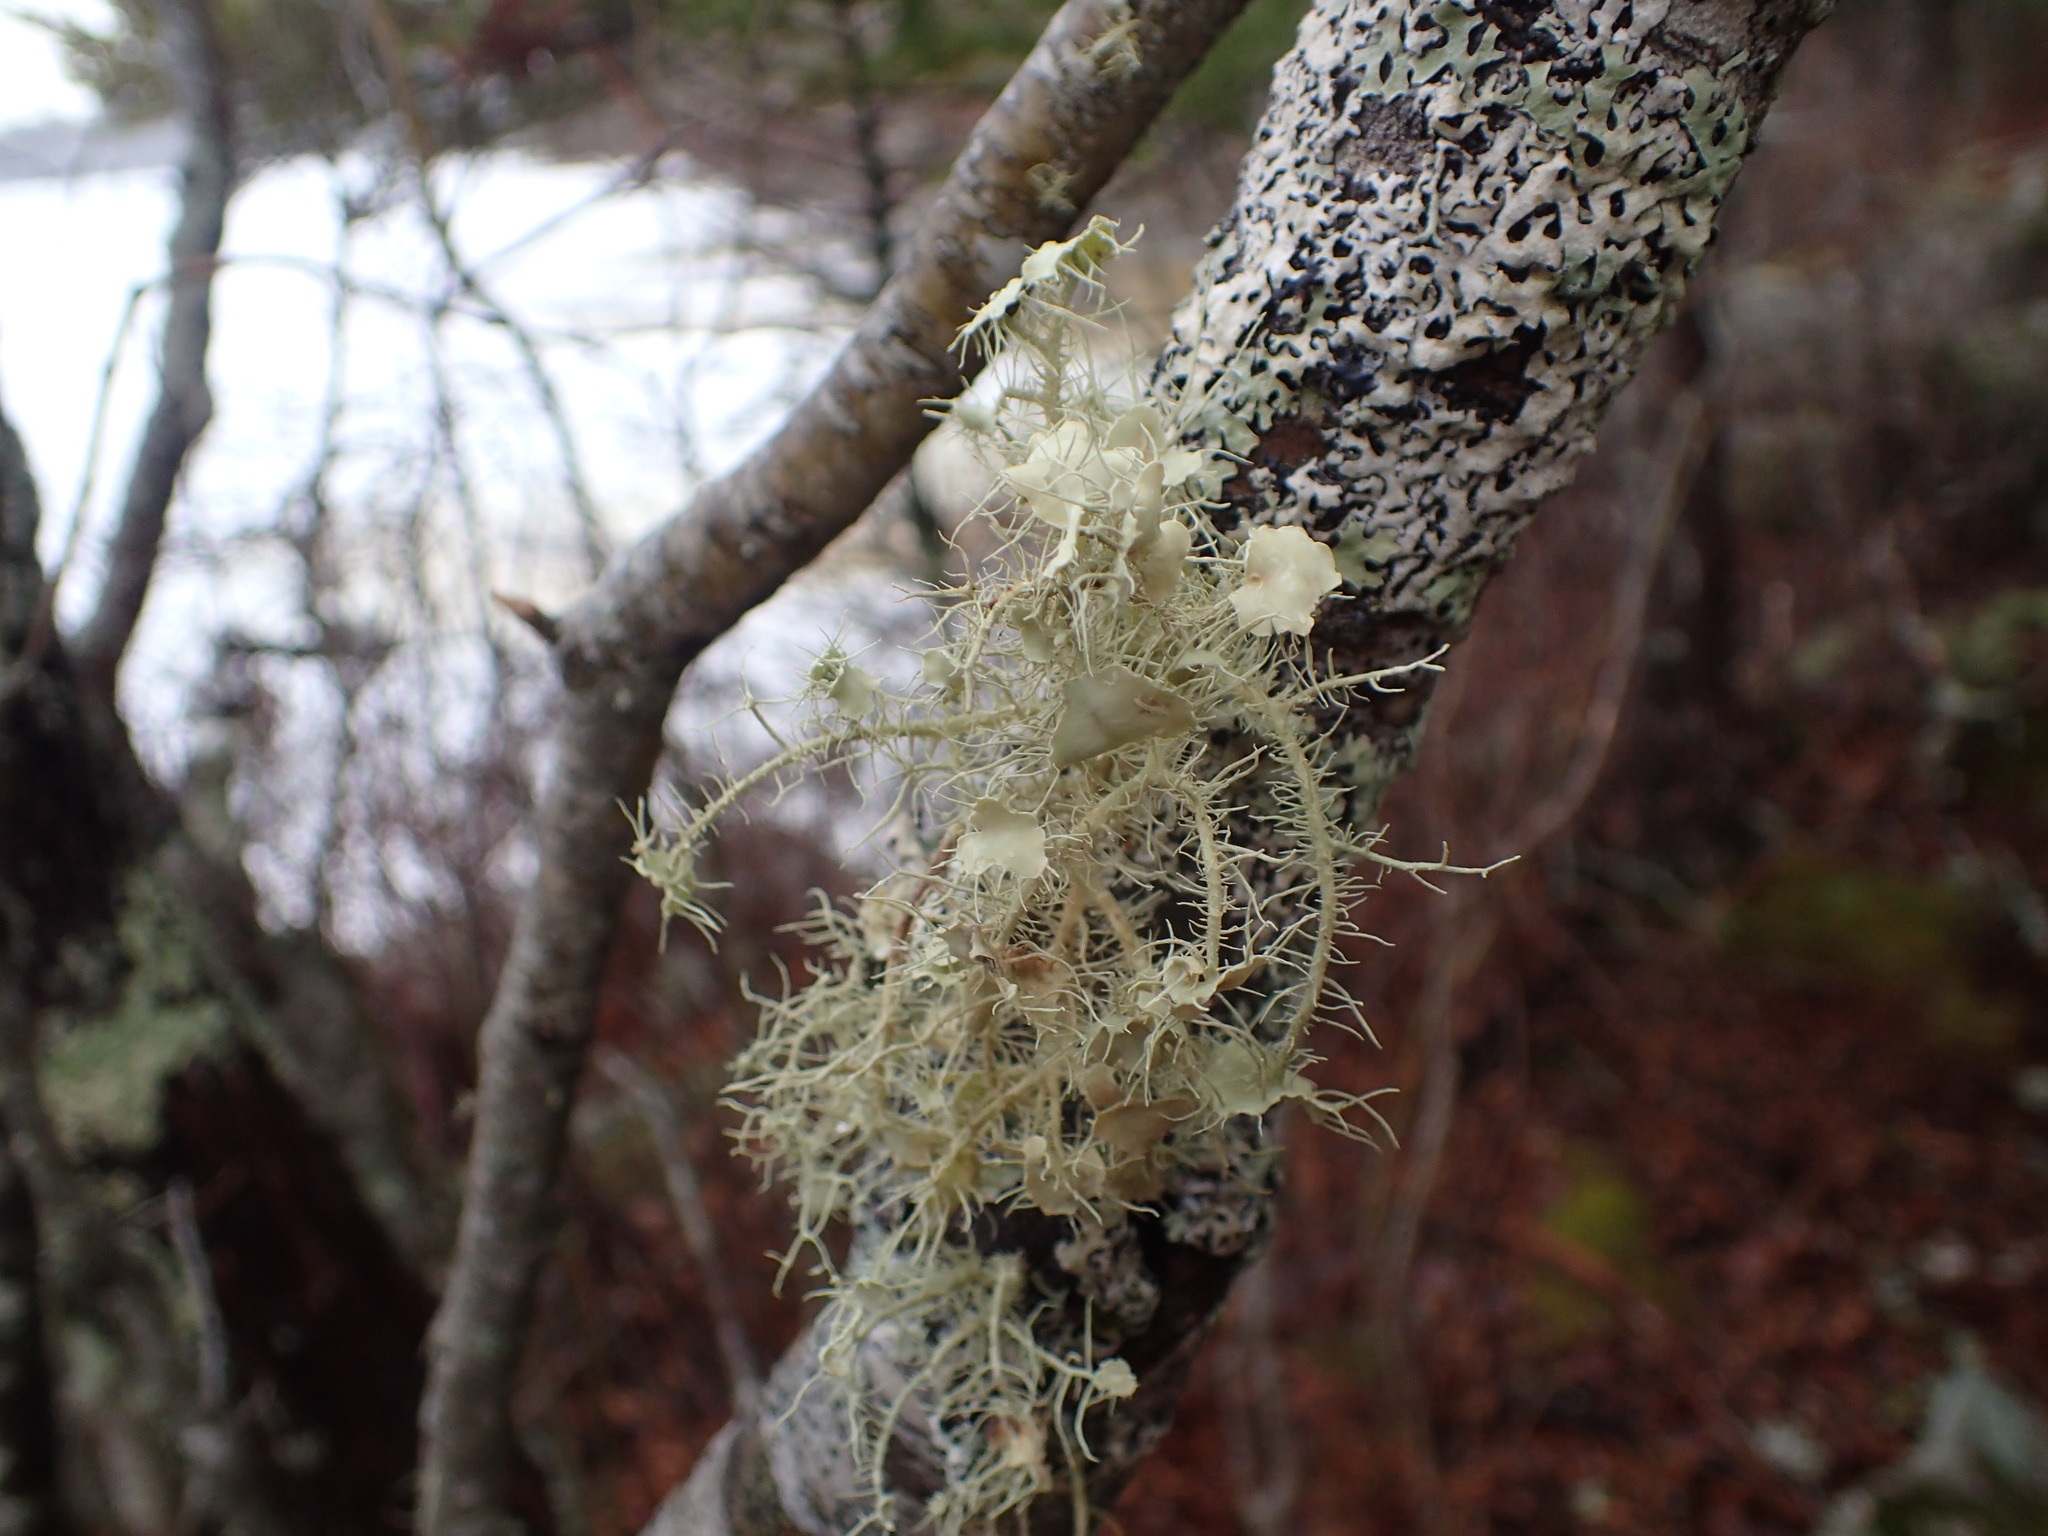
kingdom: Fungi
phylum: Ascomycota
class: Lecanoromycetes
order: Lecanorales
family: Parmeliaceae
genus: Usnea
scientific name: Usnea strigosa
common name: Bushy beard lichen
